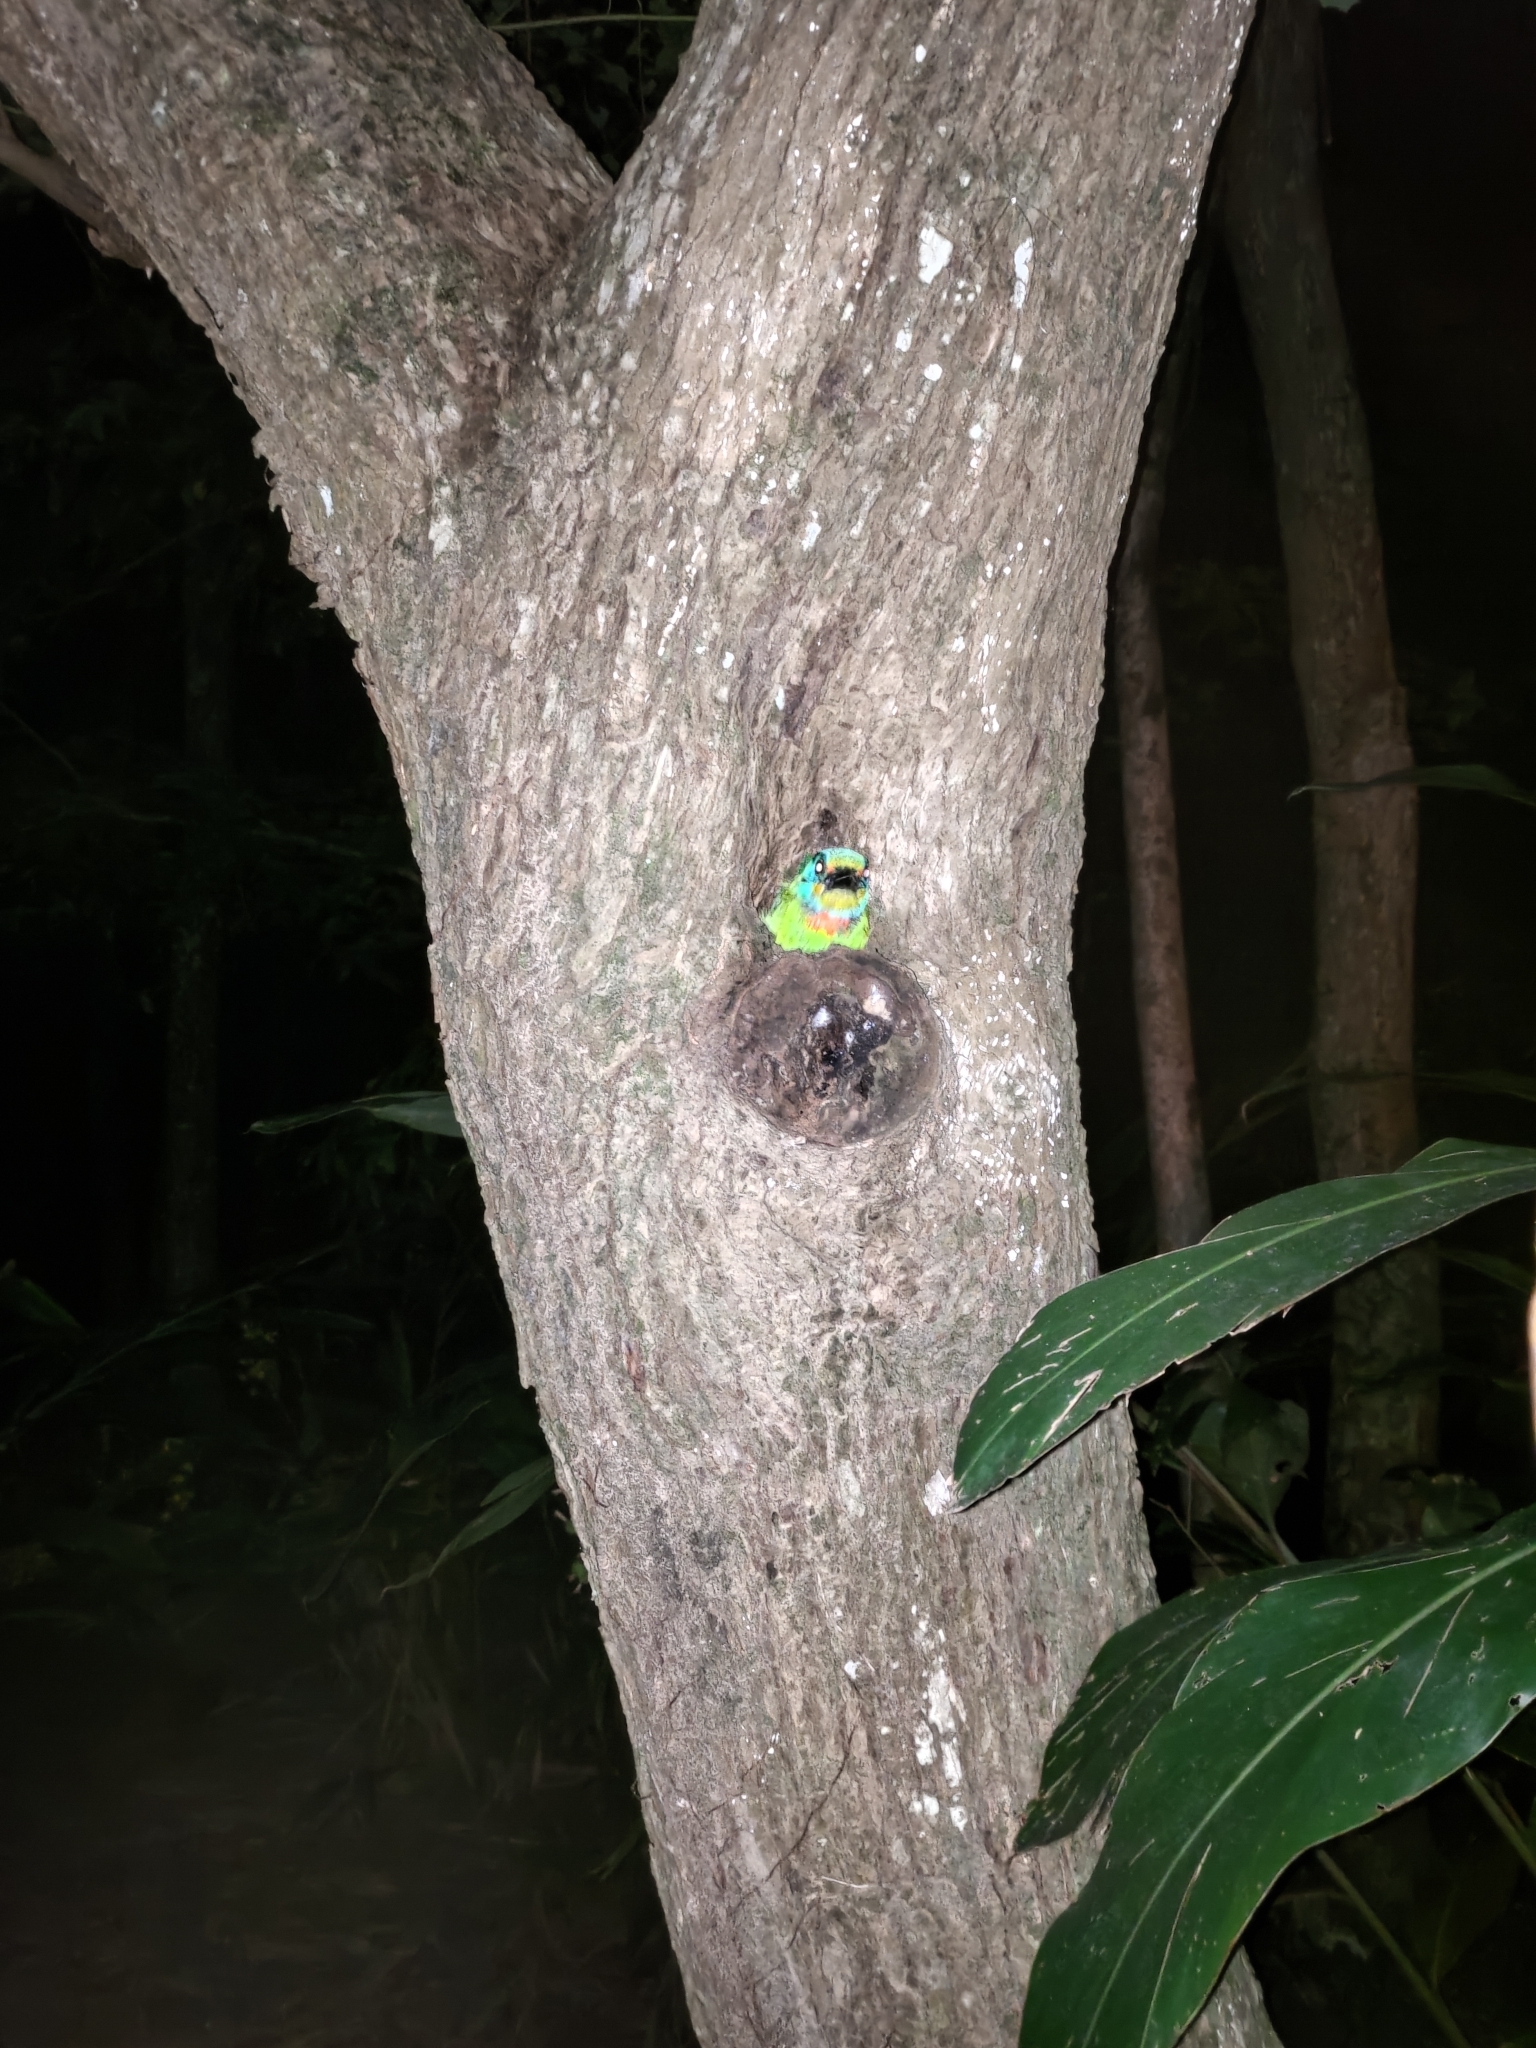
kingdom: Animalia
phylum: Chordata
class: Aves
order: Piciformes
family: Megalaimidae
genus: Psilopogon
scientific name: Psilopogon nuchalis
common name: Taiwan barbet
